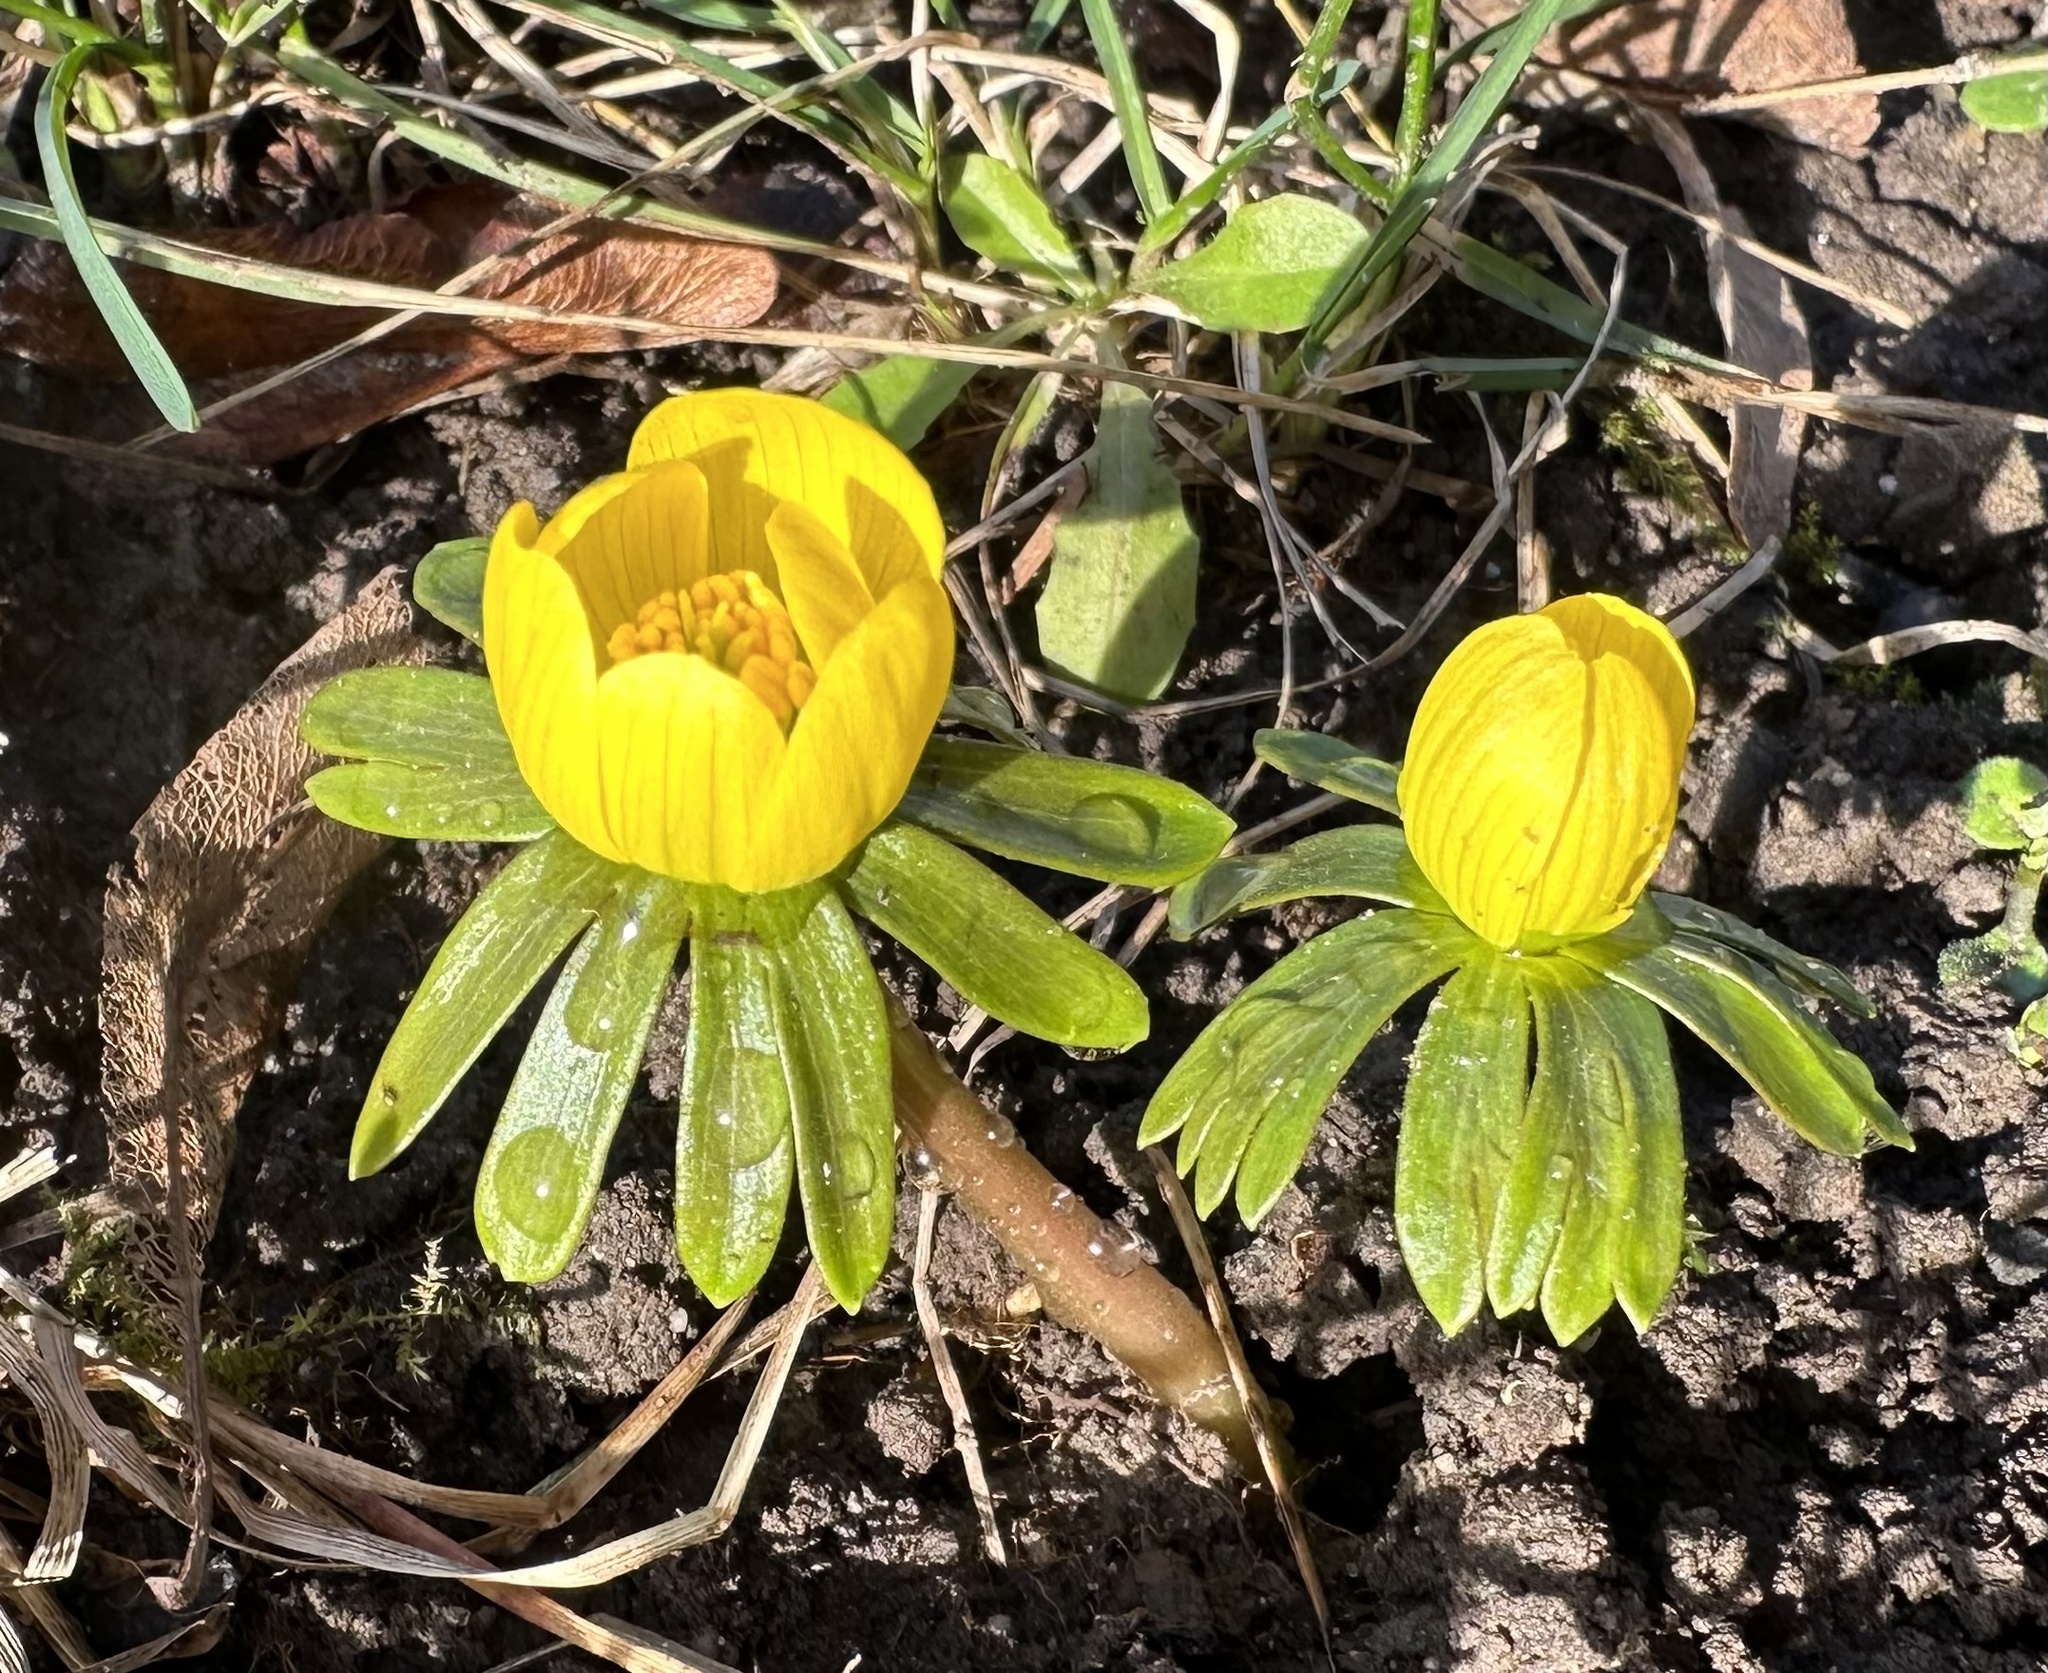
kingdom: Plantae
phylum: Tracheophyta
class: Magnoliopsida
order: Ranunculales
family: Ranunculaceae
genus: Eranthis
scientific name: Eranthis hyemalis
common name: Winter aconite
